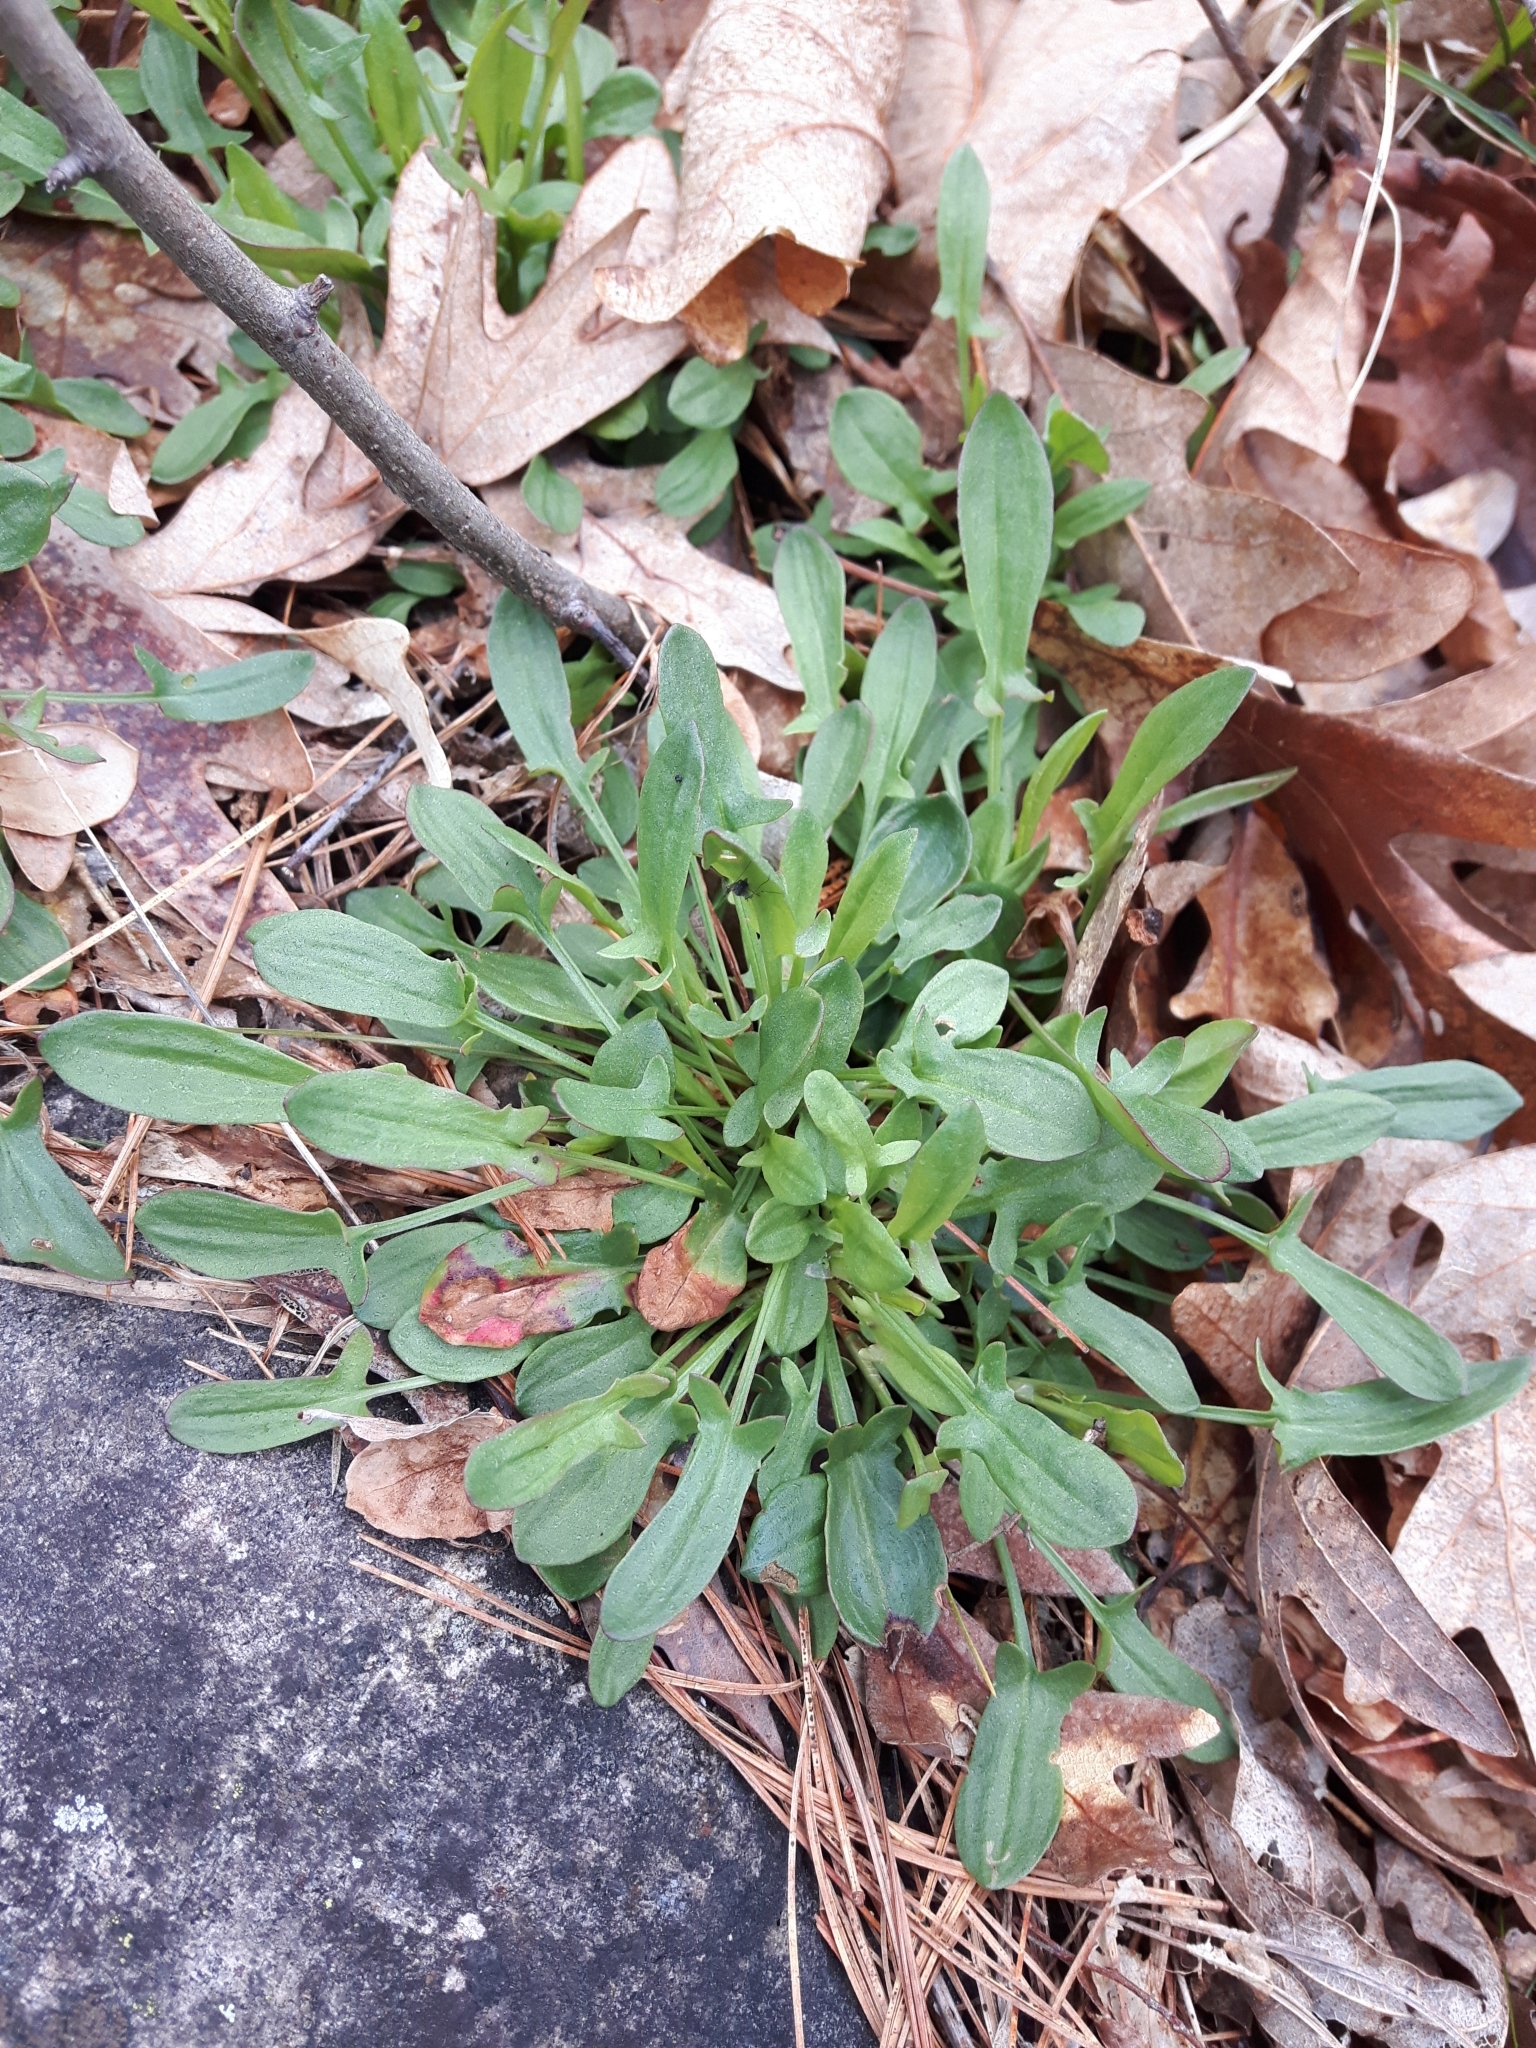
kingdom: Plantae
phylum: Tracheophyta
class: Magnoliopsida
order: Caryophyllales
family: Polygonaceae
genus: Rumex
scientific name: Rumex acetosella
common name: Common sheep sorrel
